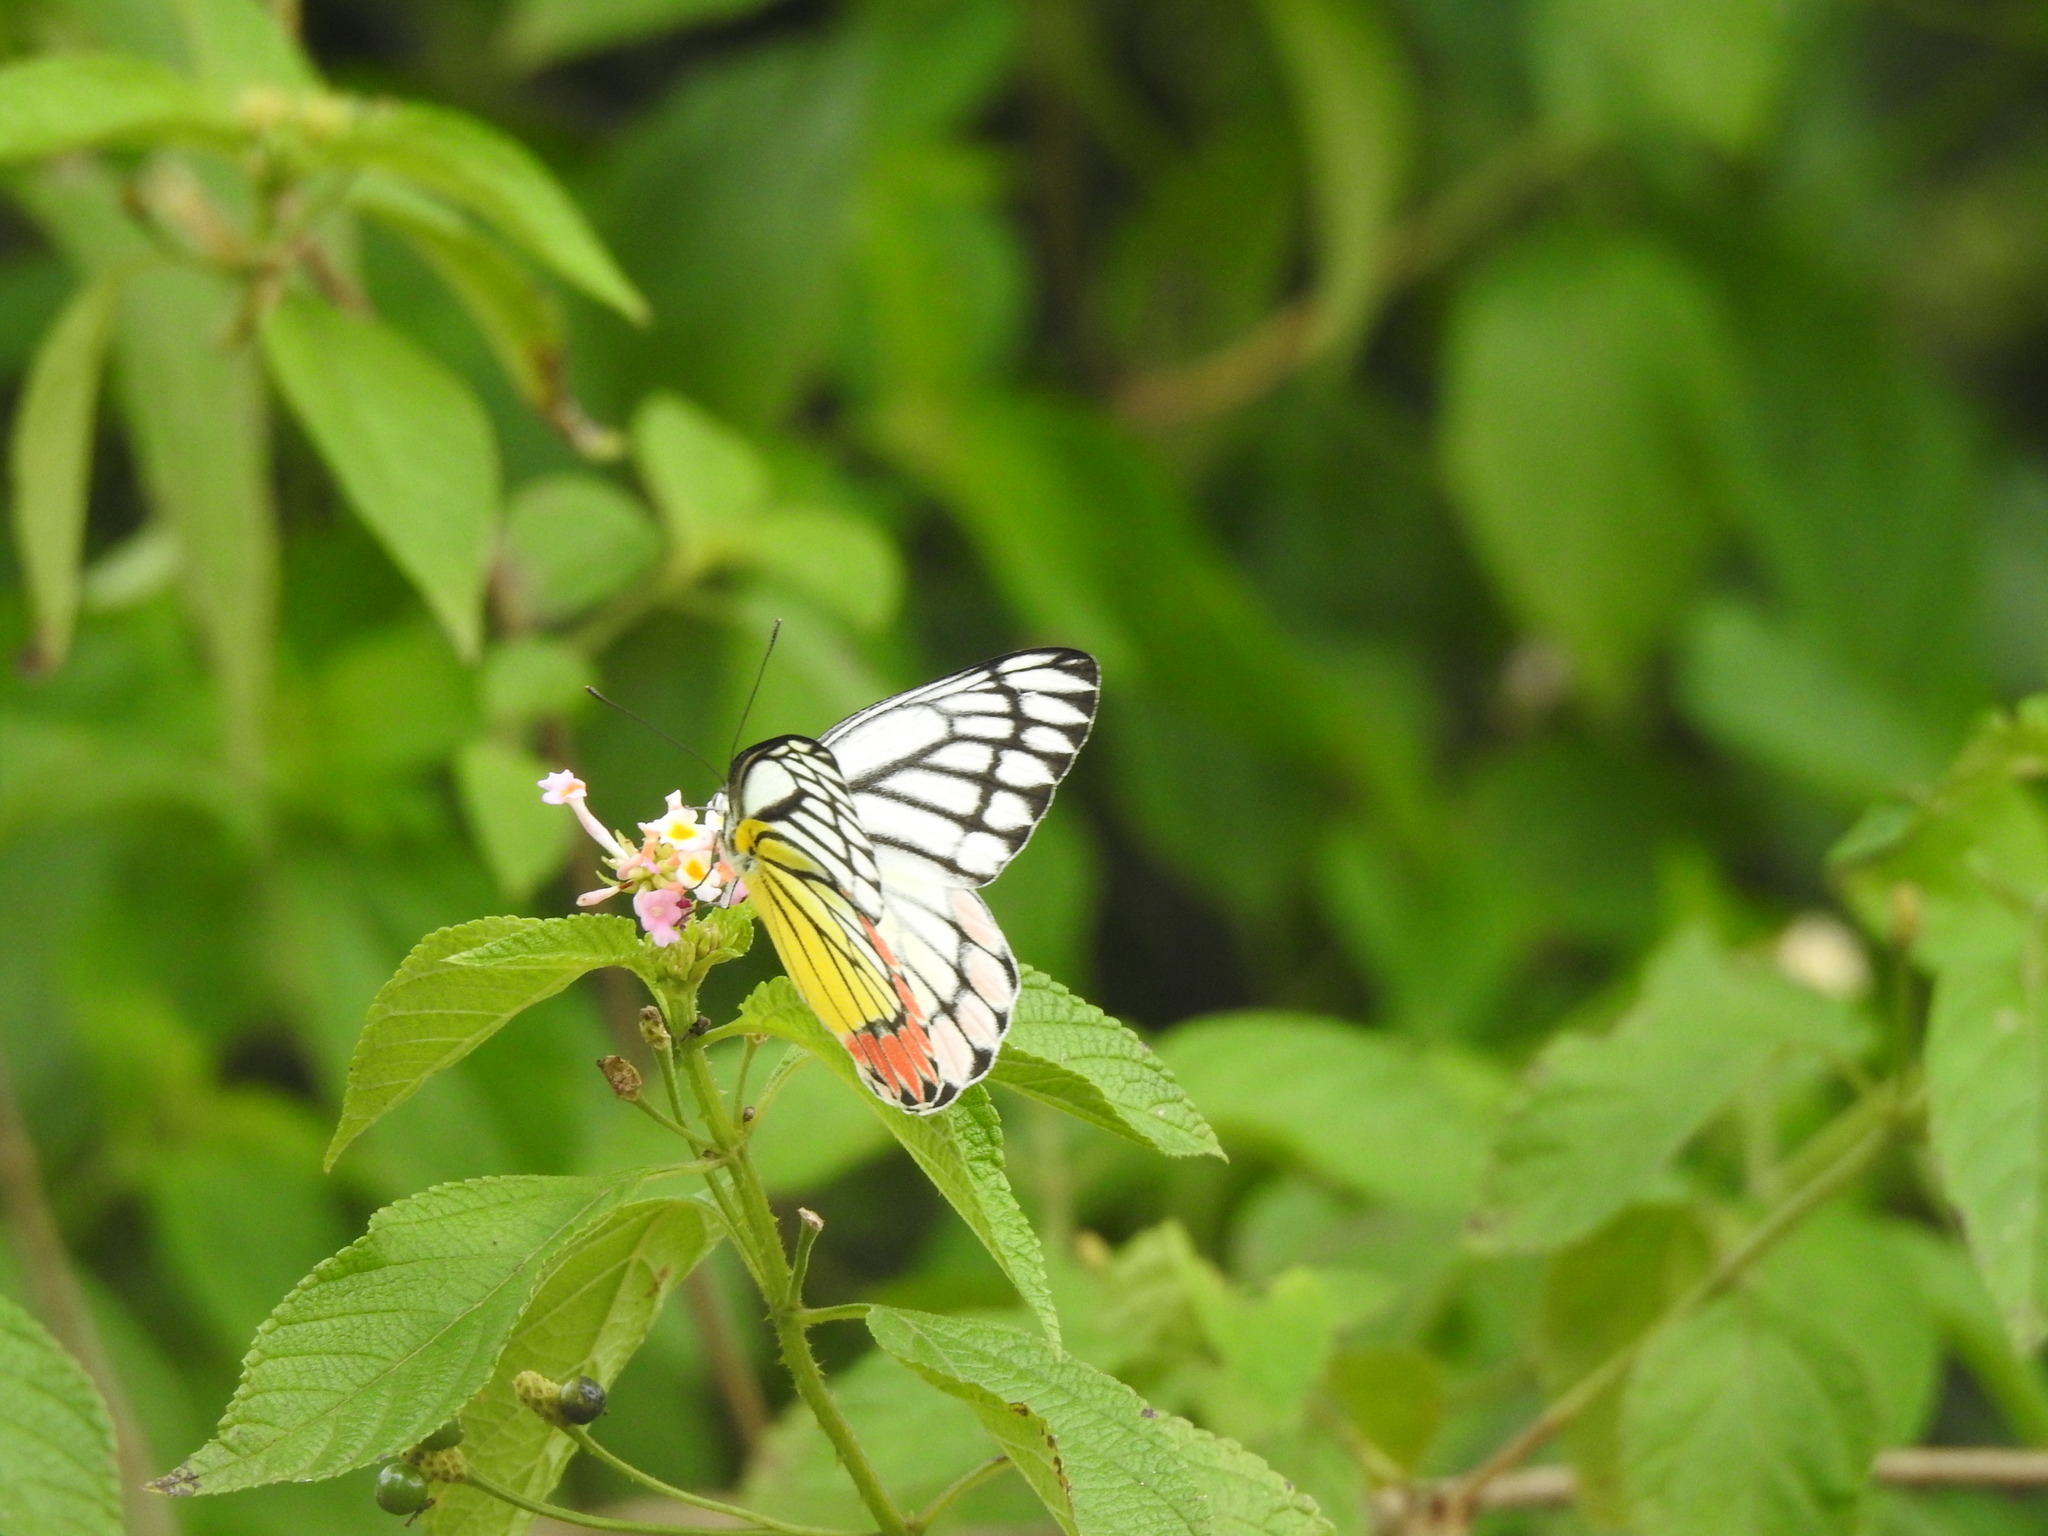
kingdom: Animalia
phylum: Arthropoda
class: Insecta
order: Lepidoptera
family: Pieridae
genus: Delias
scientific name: Delias eucharis
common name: Common jezebel
